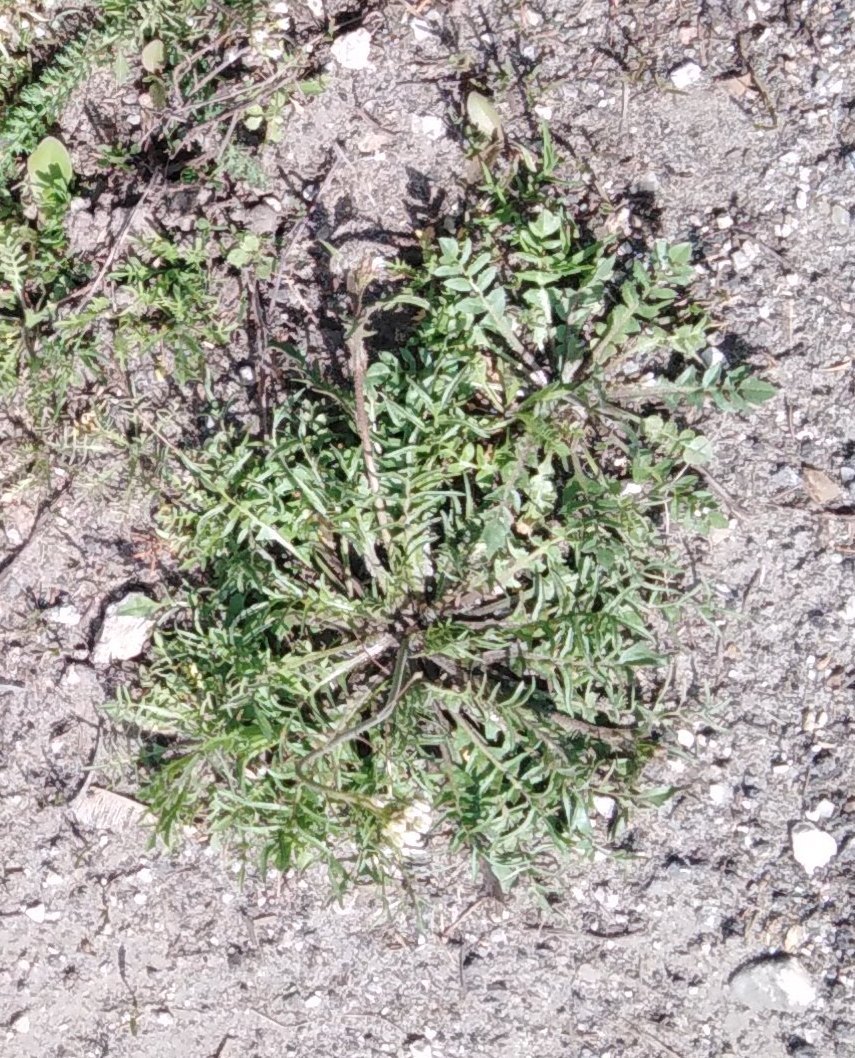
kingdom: Plantae
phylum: Tracheophyta
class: Magnoliopsida
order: Brassicales
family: Brassicaceae
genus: Capsella
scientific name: Capsella bursa-pastoris
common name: Shepherd's purse
